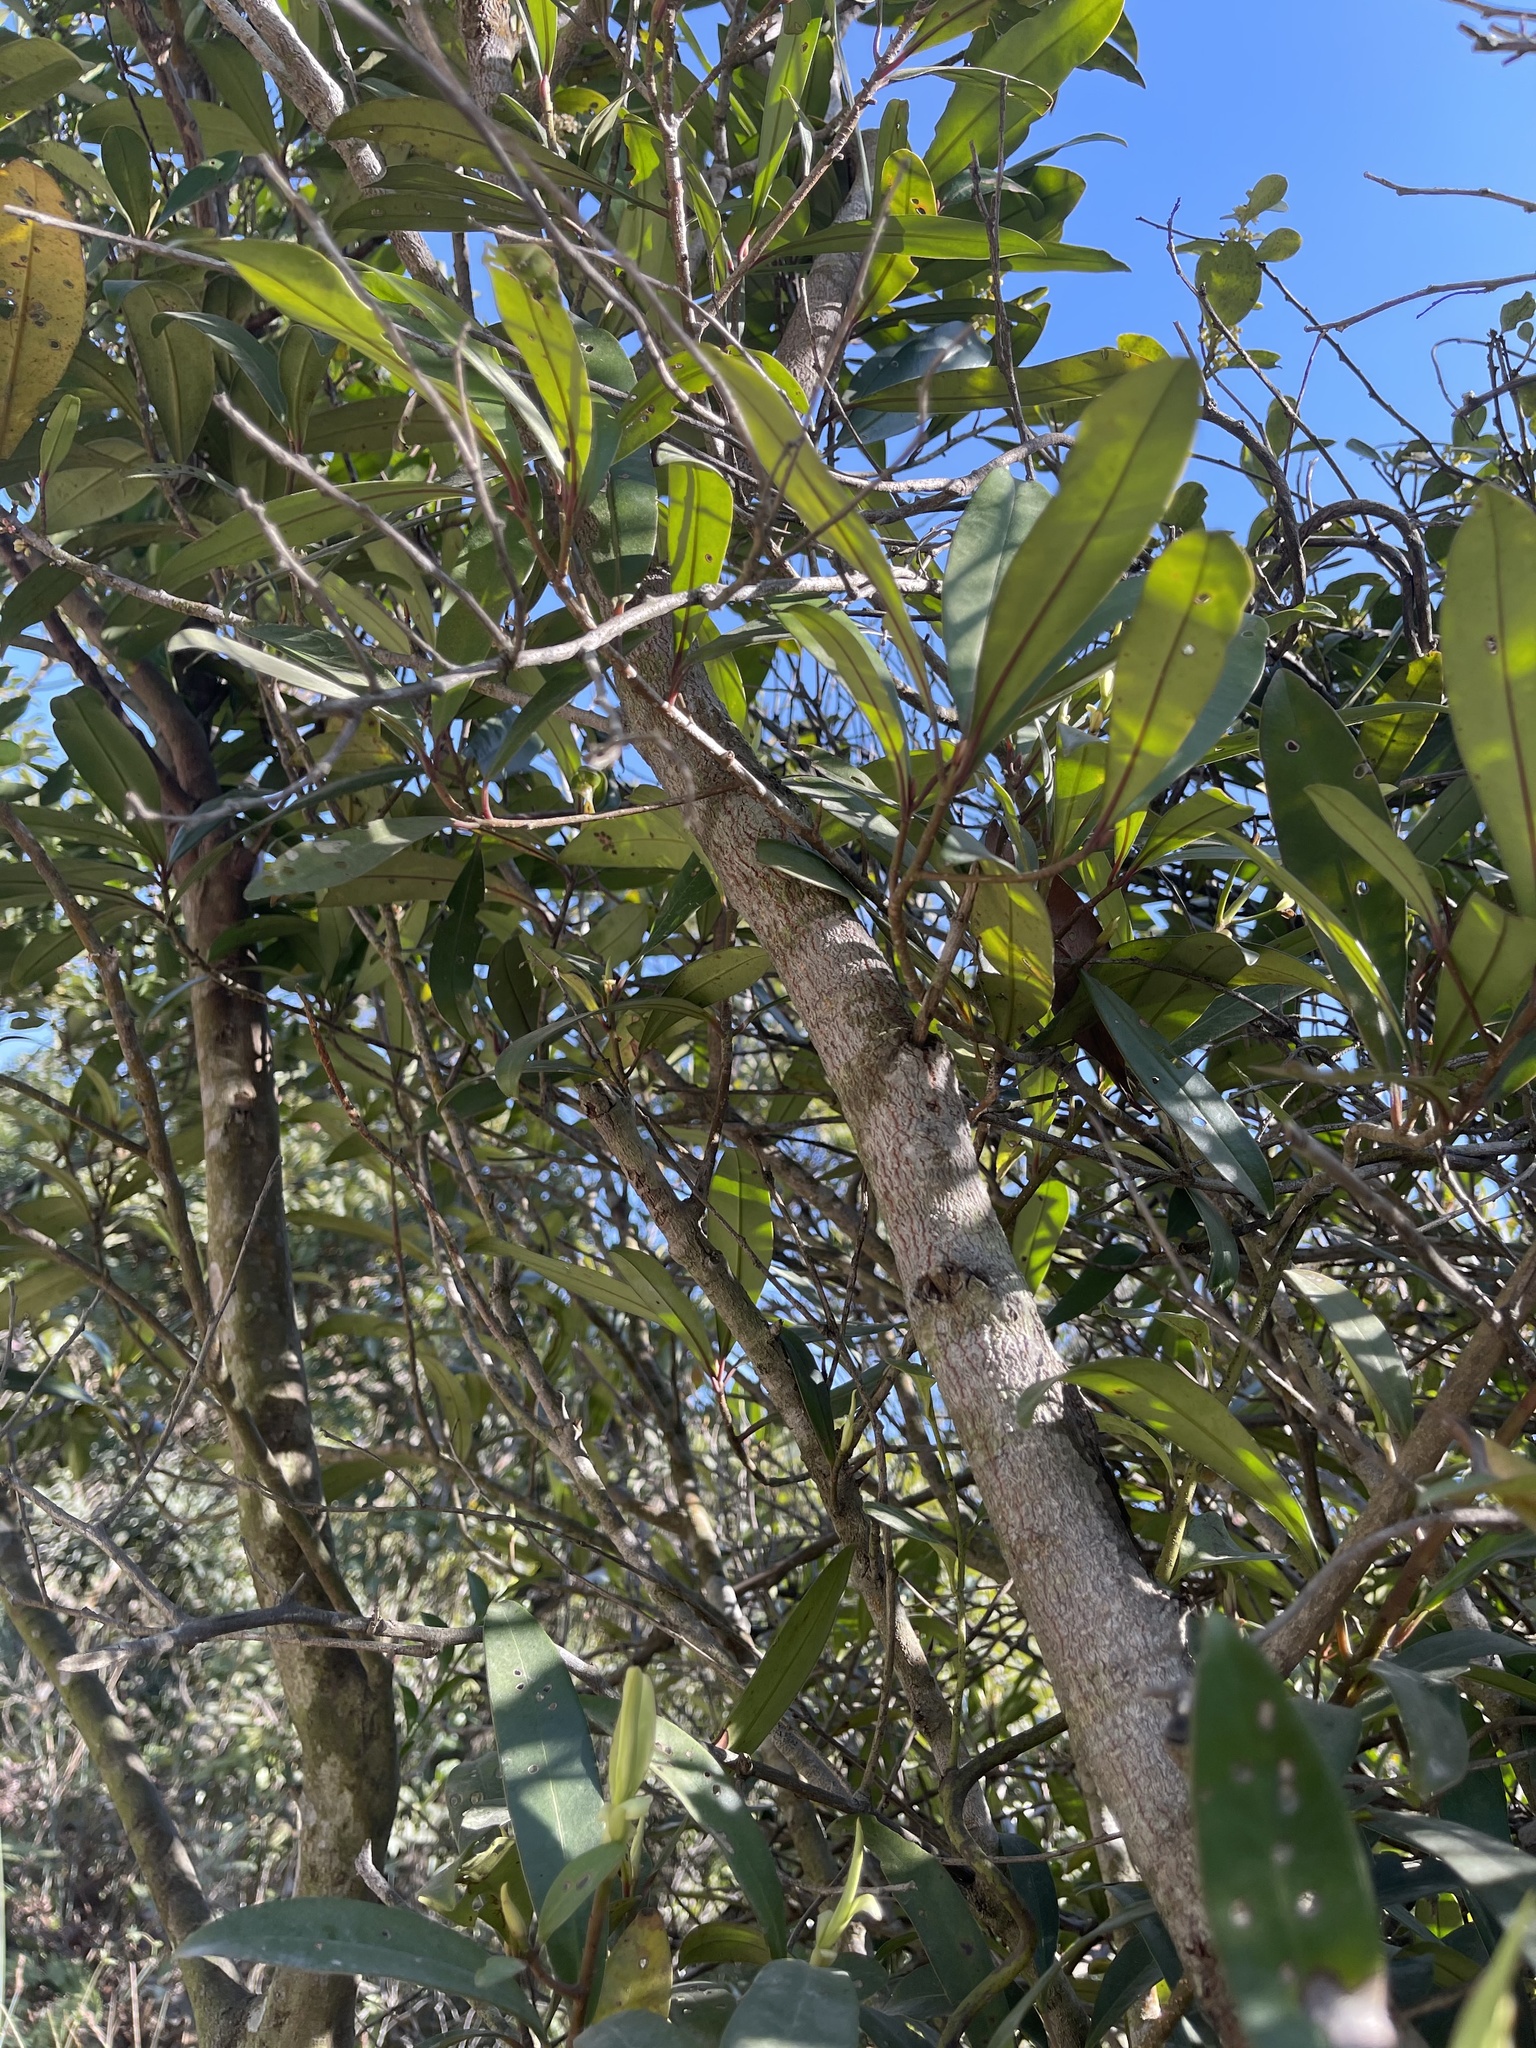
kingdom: Plantae
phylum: Tracheophyta
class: Magnoliopsida
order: Ericales
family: Primulaceae
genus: Myrsine
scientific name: Myrsine seguinii
